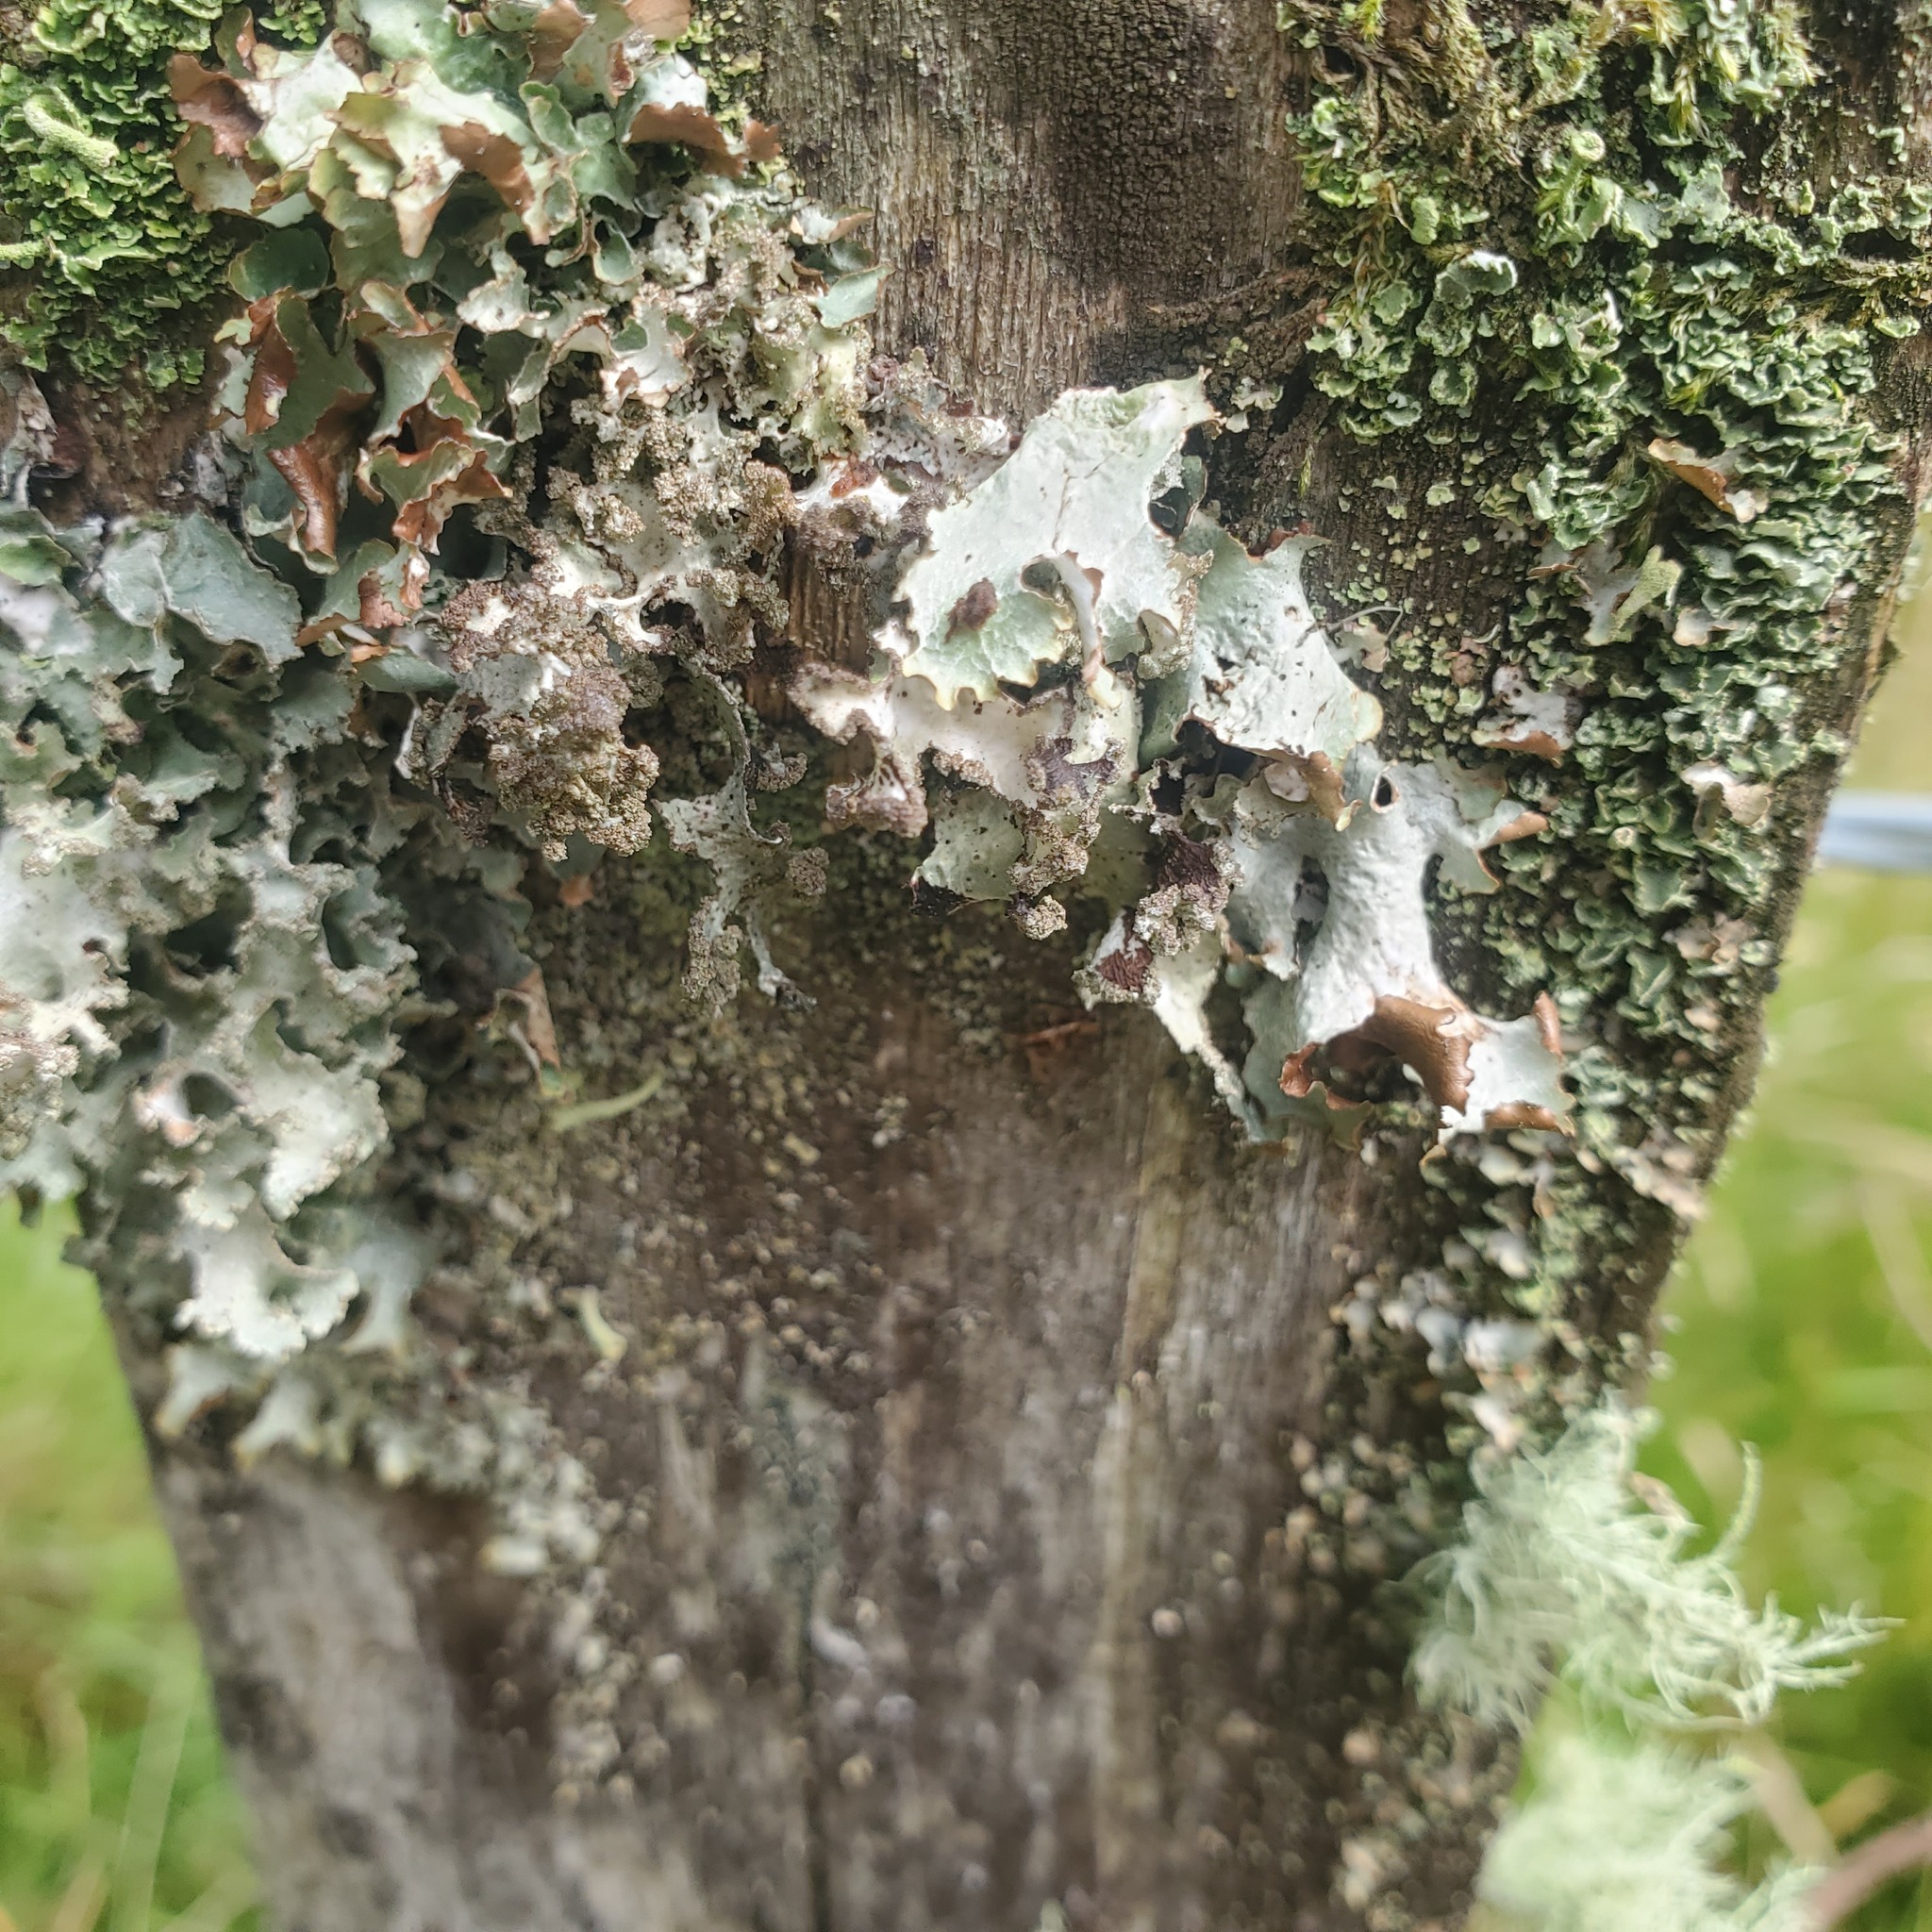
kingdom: Fungi
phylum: Ascomycota
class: Lecanoromycetes
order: Lecanorales
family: Parmeliaceae
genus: Platismatia
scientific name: Platismatia glauca
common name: Varied rag lichen
